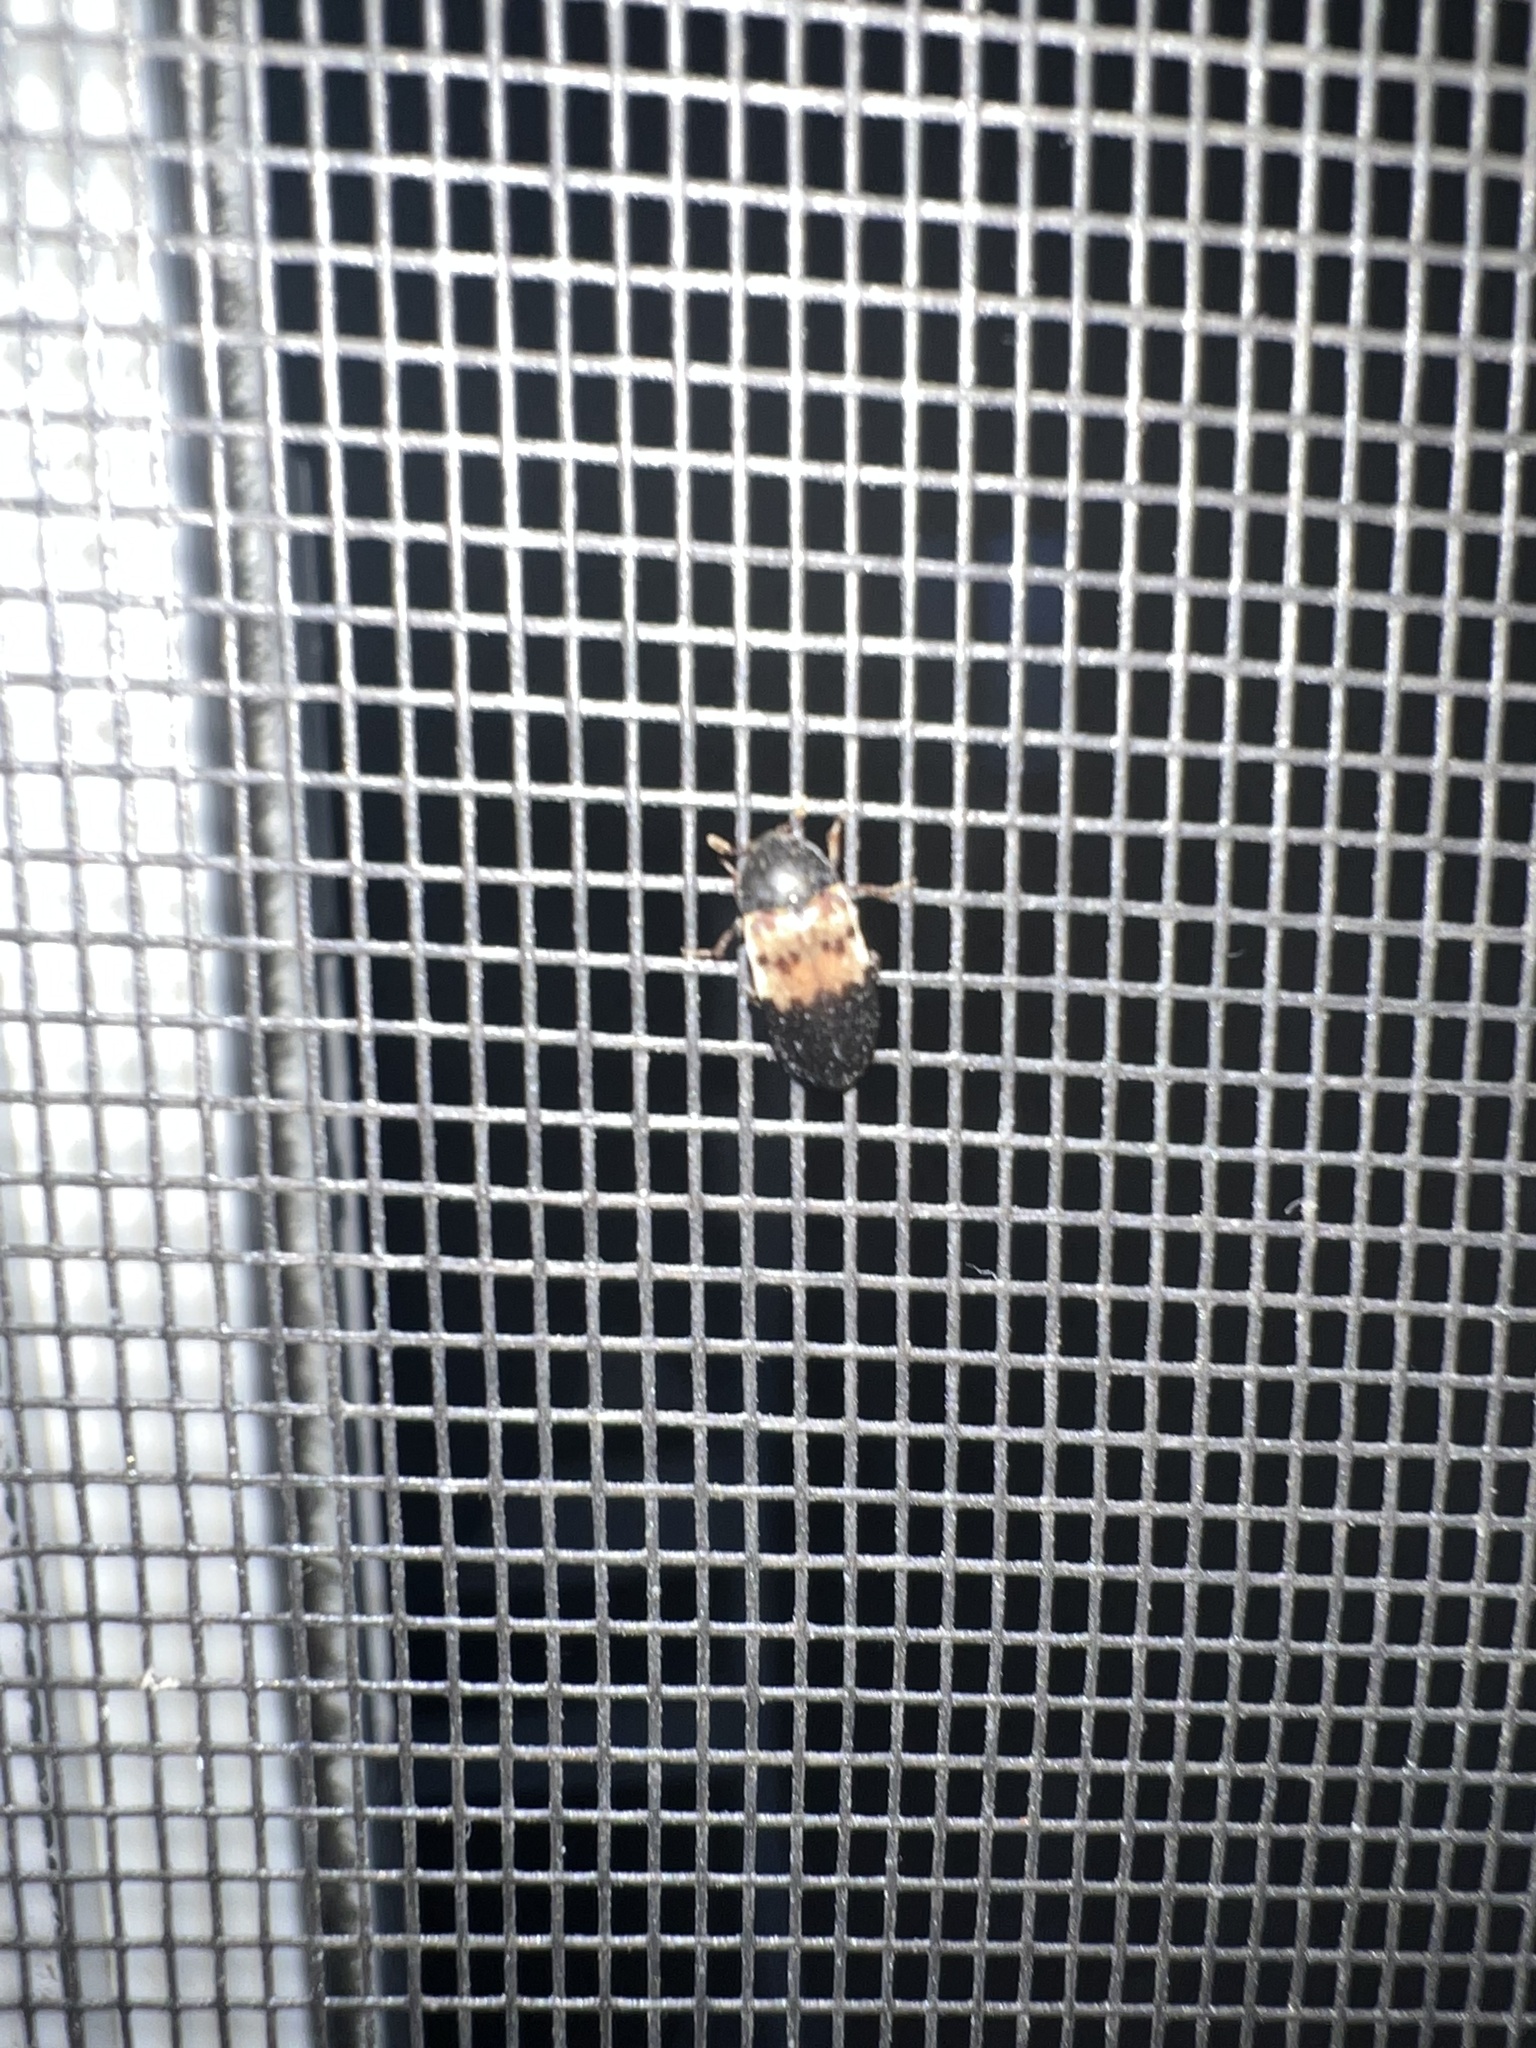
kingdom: Animalia
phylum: Arthropoda
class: Insecta
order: Coleoptera
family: Dermestidae
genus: Dermestes
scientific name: Dermestes lardarius
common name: Larder beetle
